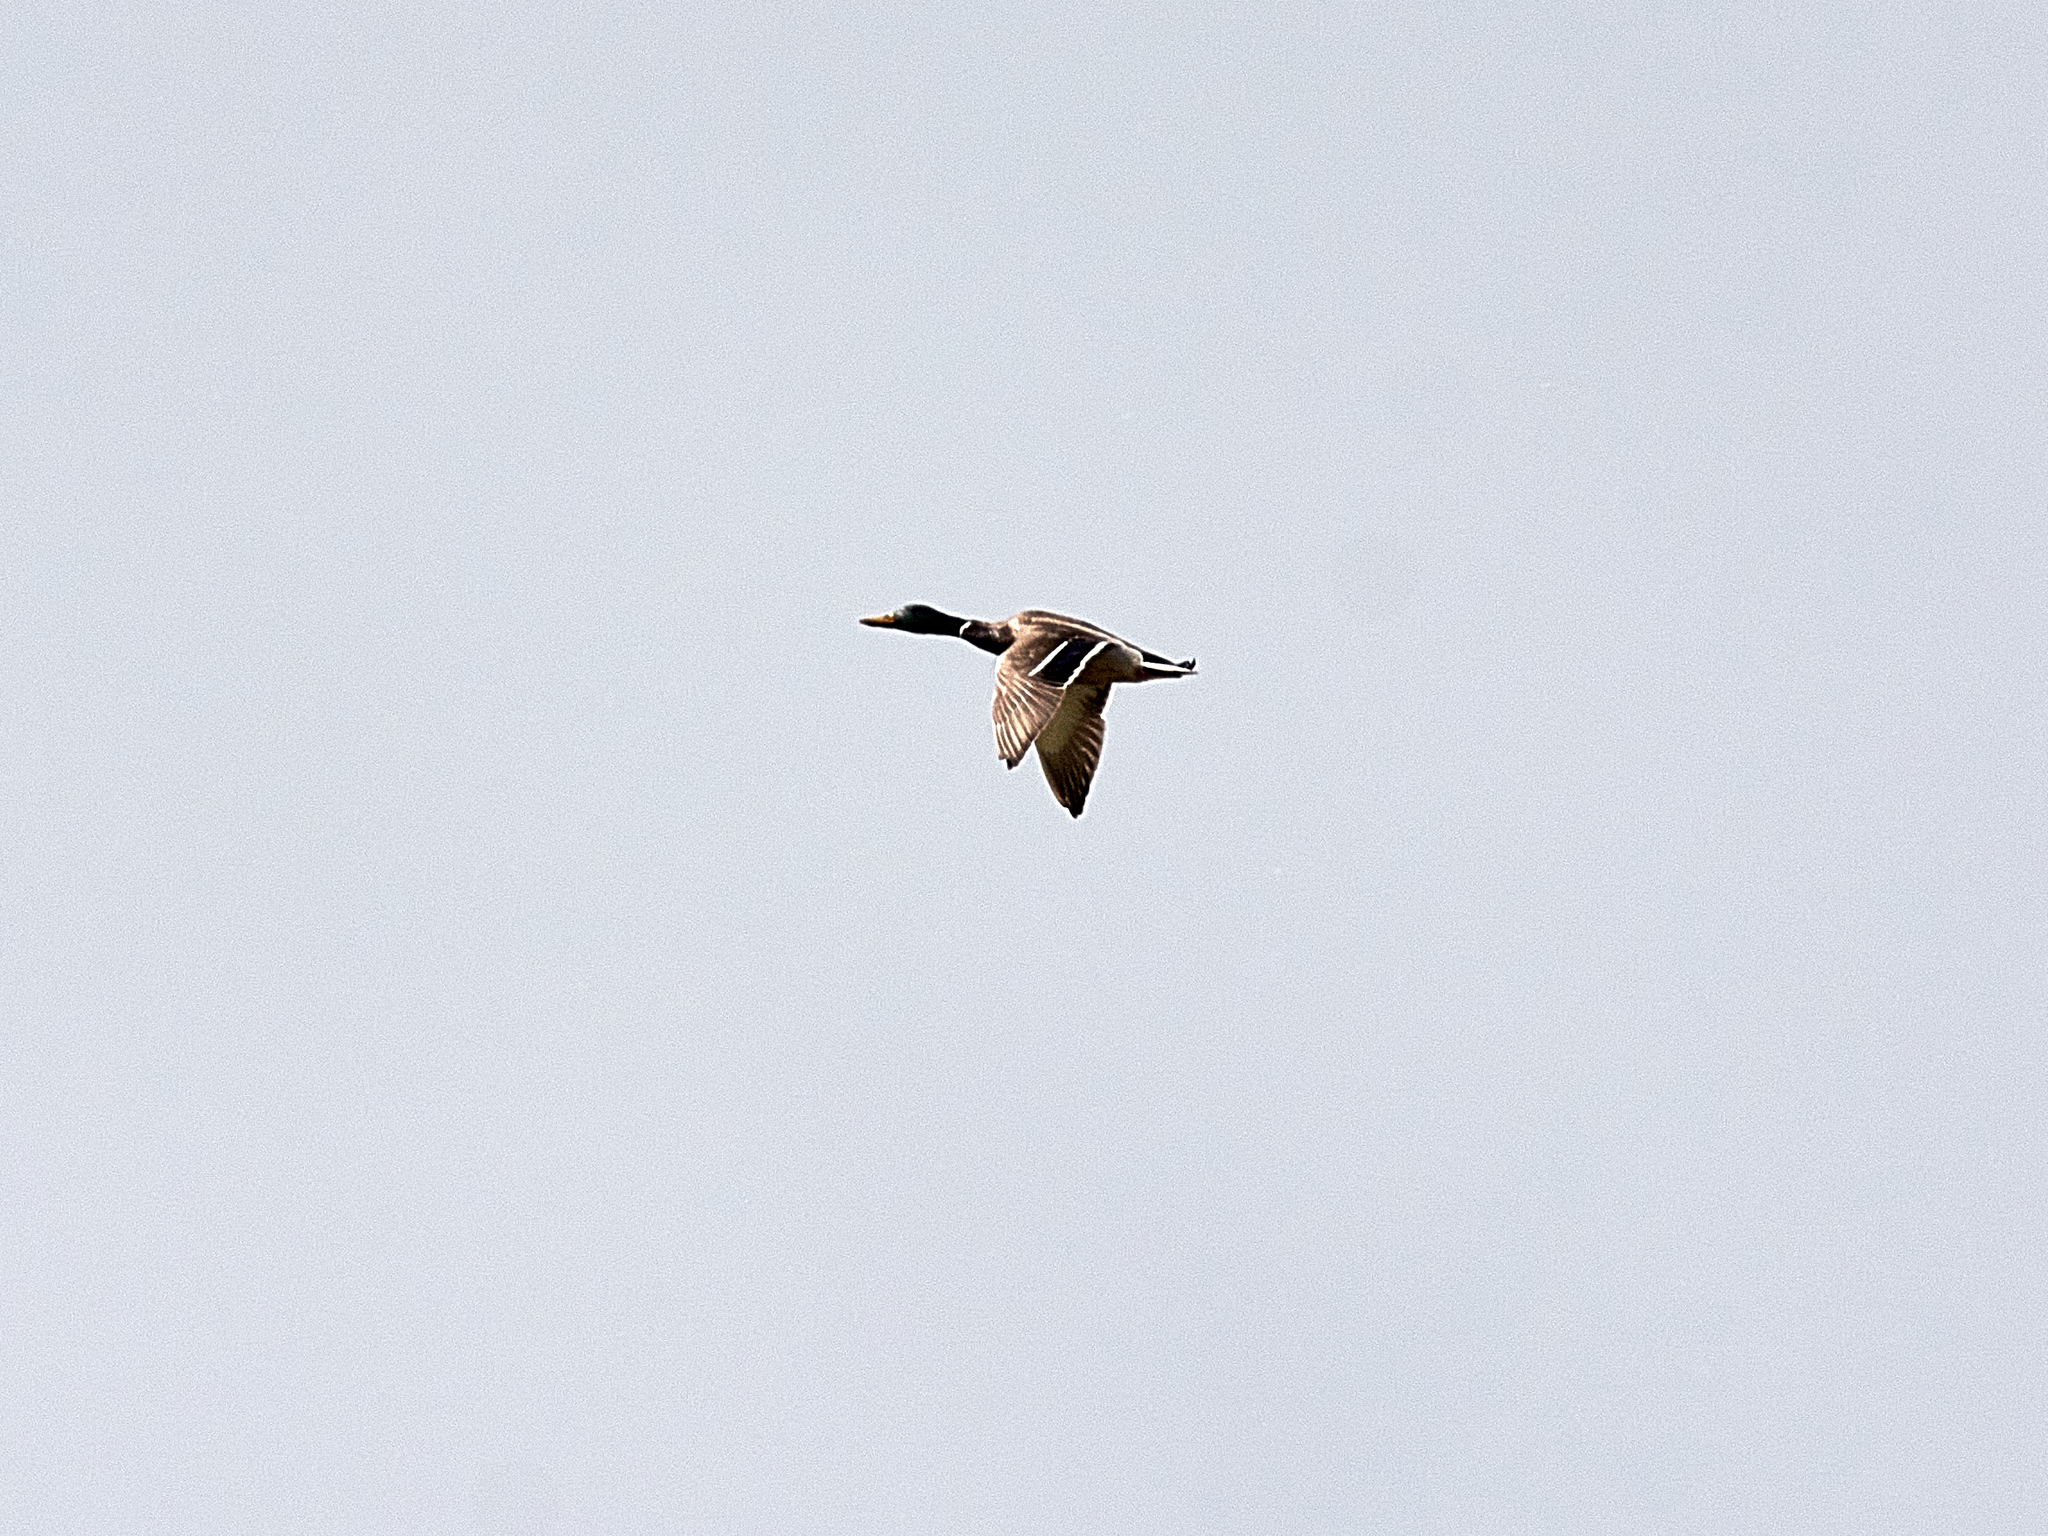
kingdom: Animalia
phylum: Chordata
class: Aves
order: Anseriformes
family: Anatidae
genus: Anas
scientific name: Anas platyrhynchos
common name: Mallard
